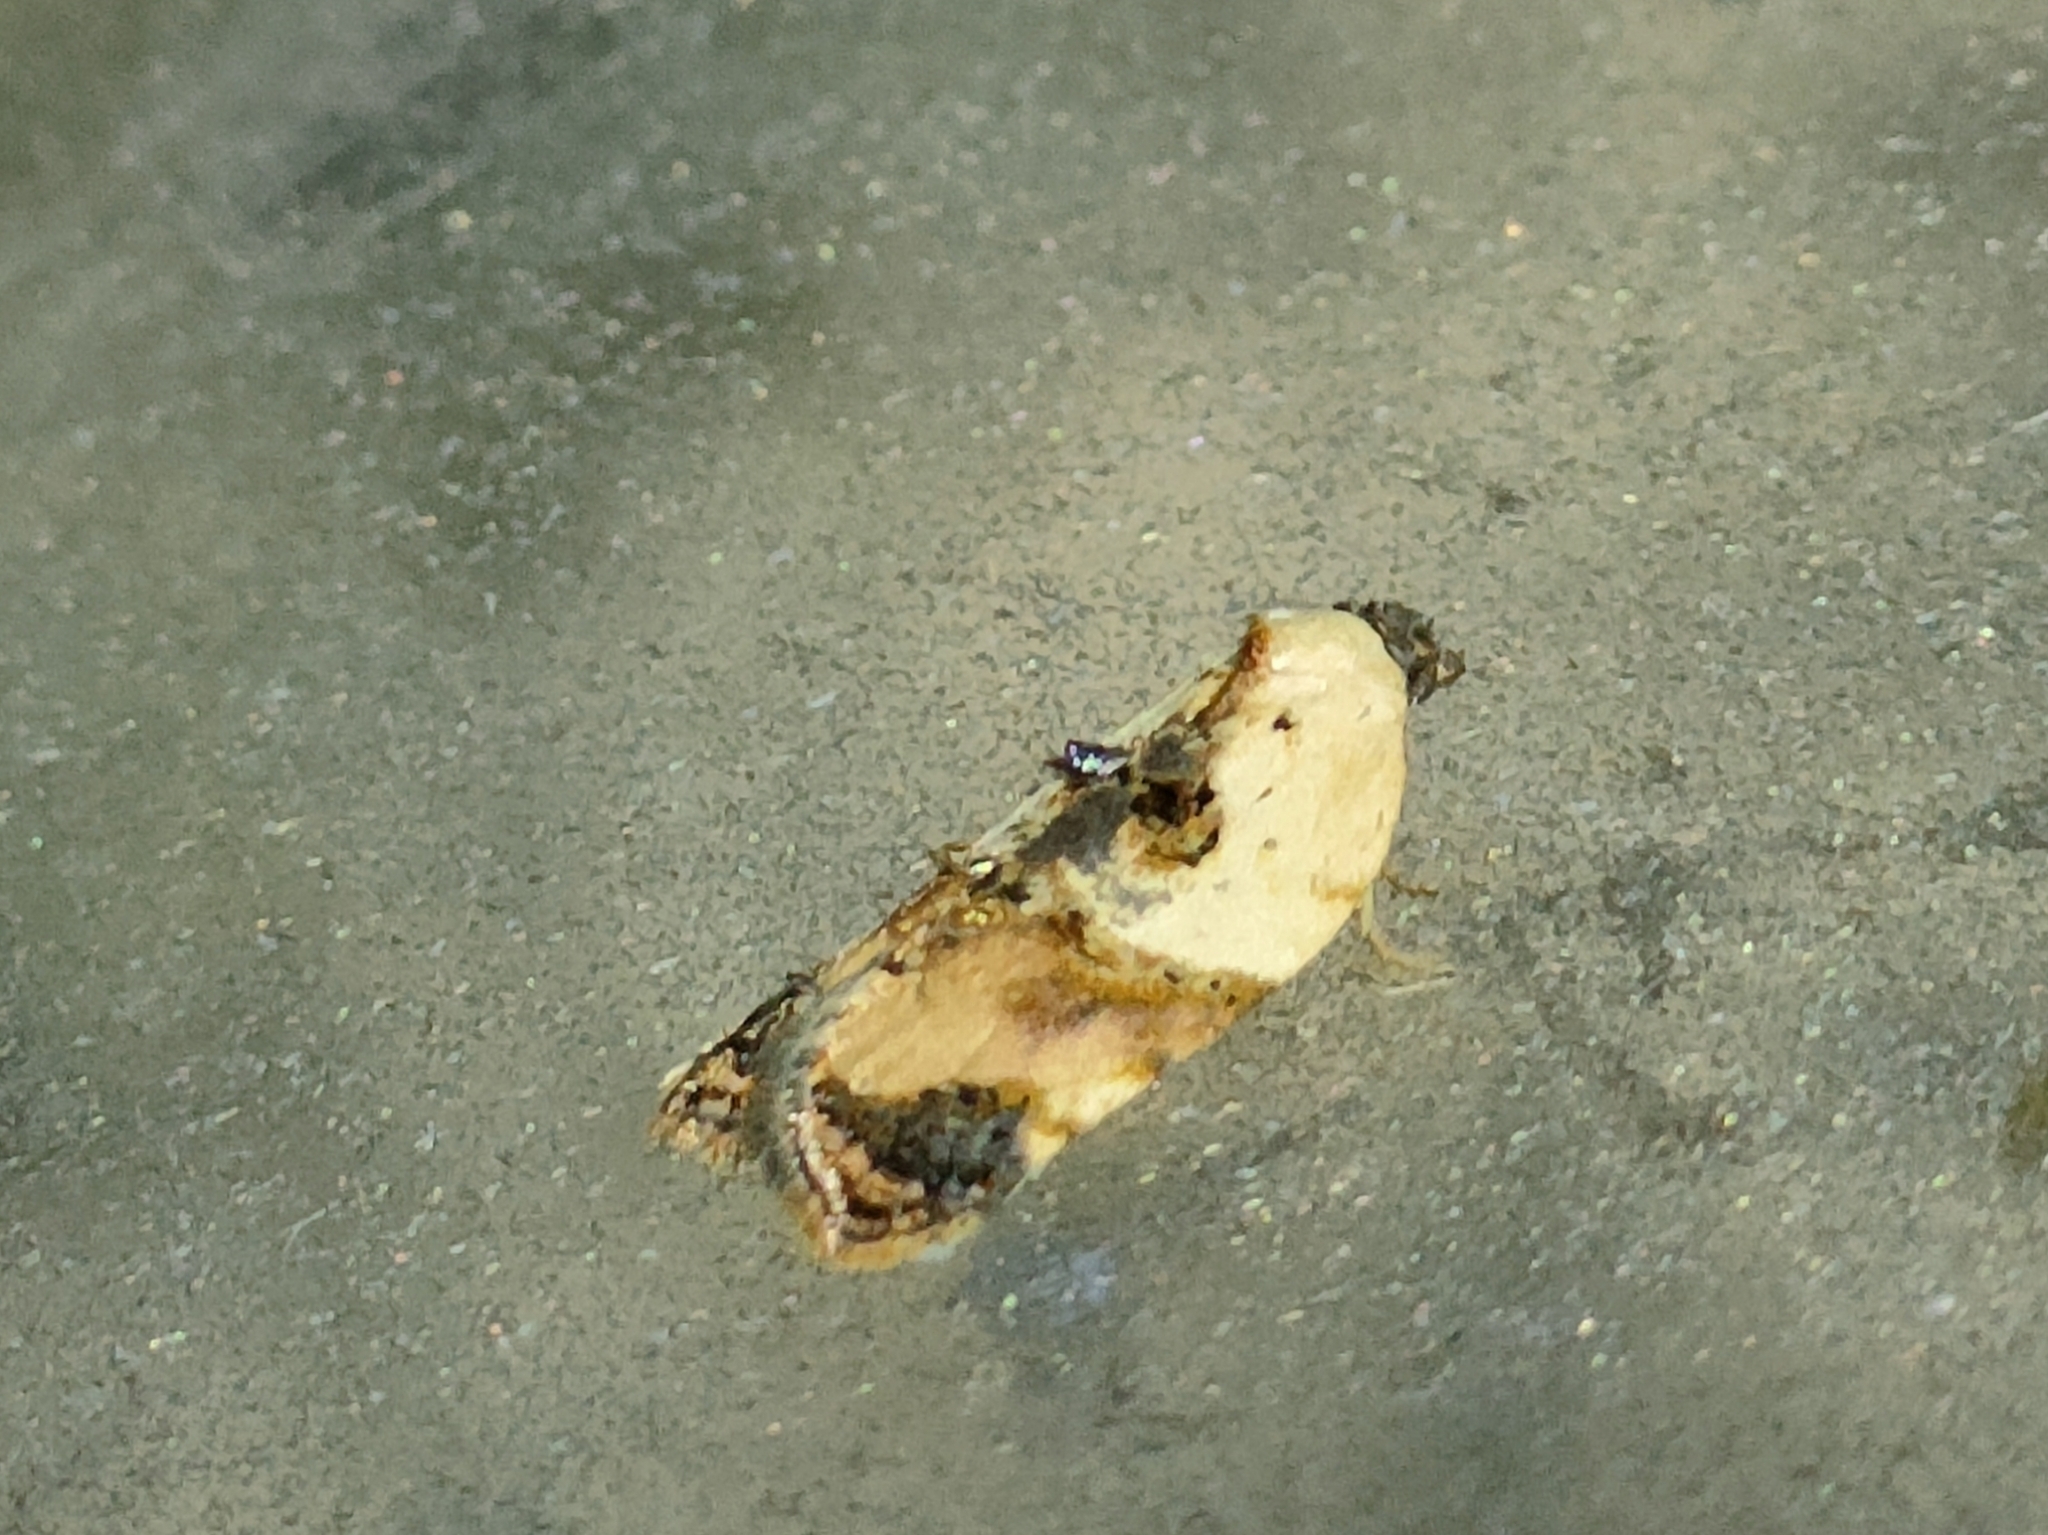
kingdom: Animalia
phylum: Arthropoda
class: Insecta
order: Lepidoptera
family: Tortricidae
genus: Acleris
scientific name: Acleris variegana
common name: Garden rose tortrix
